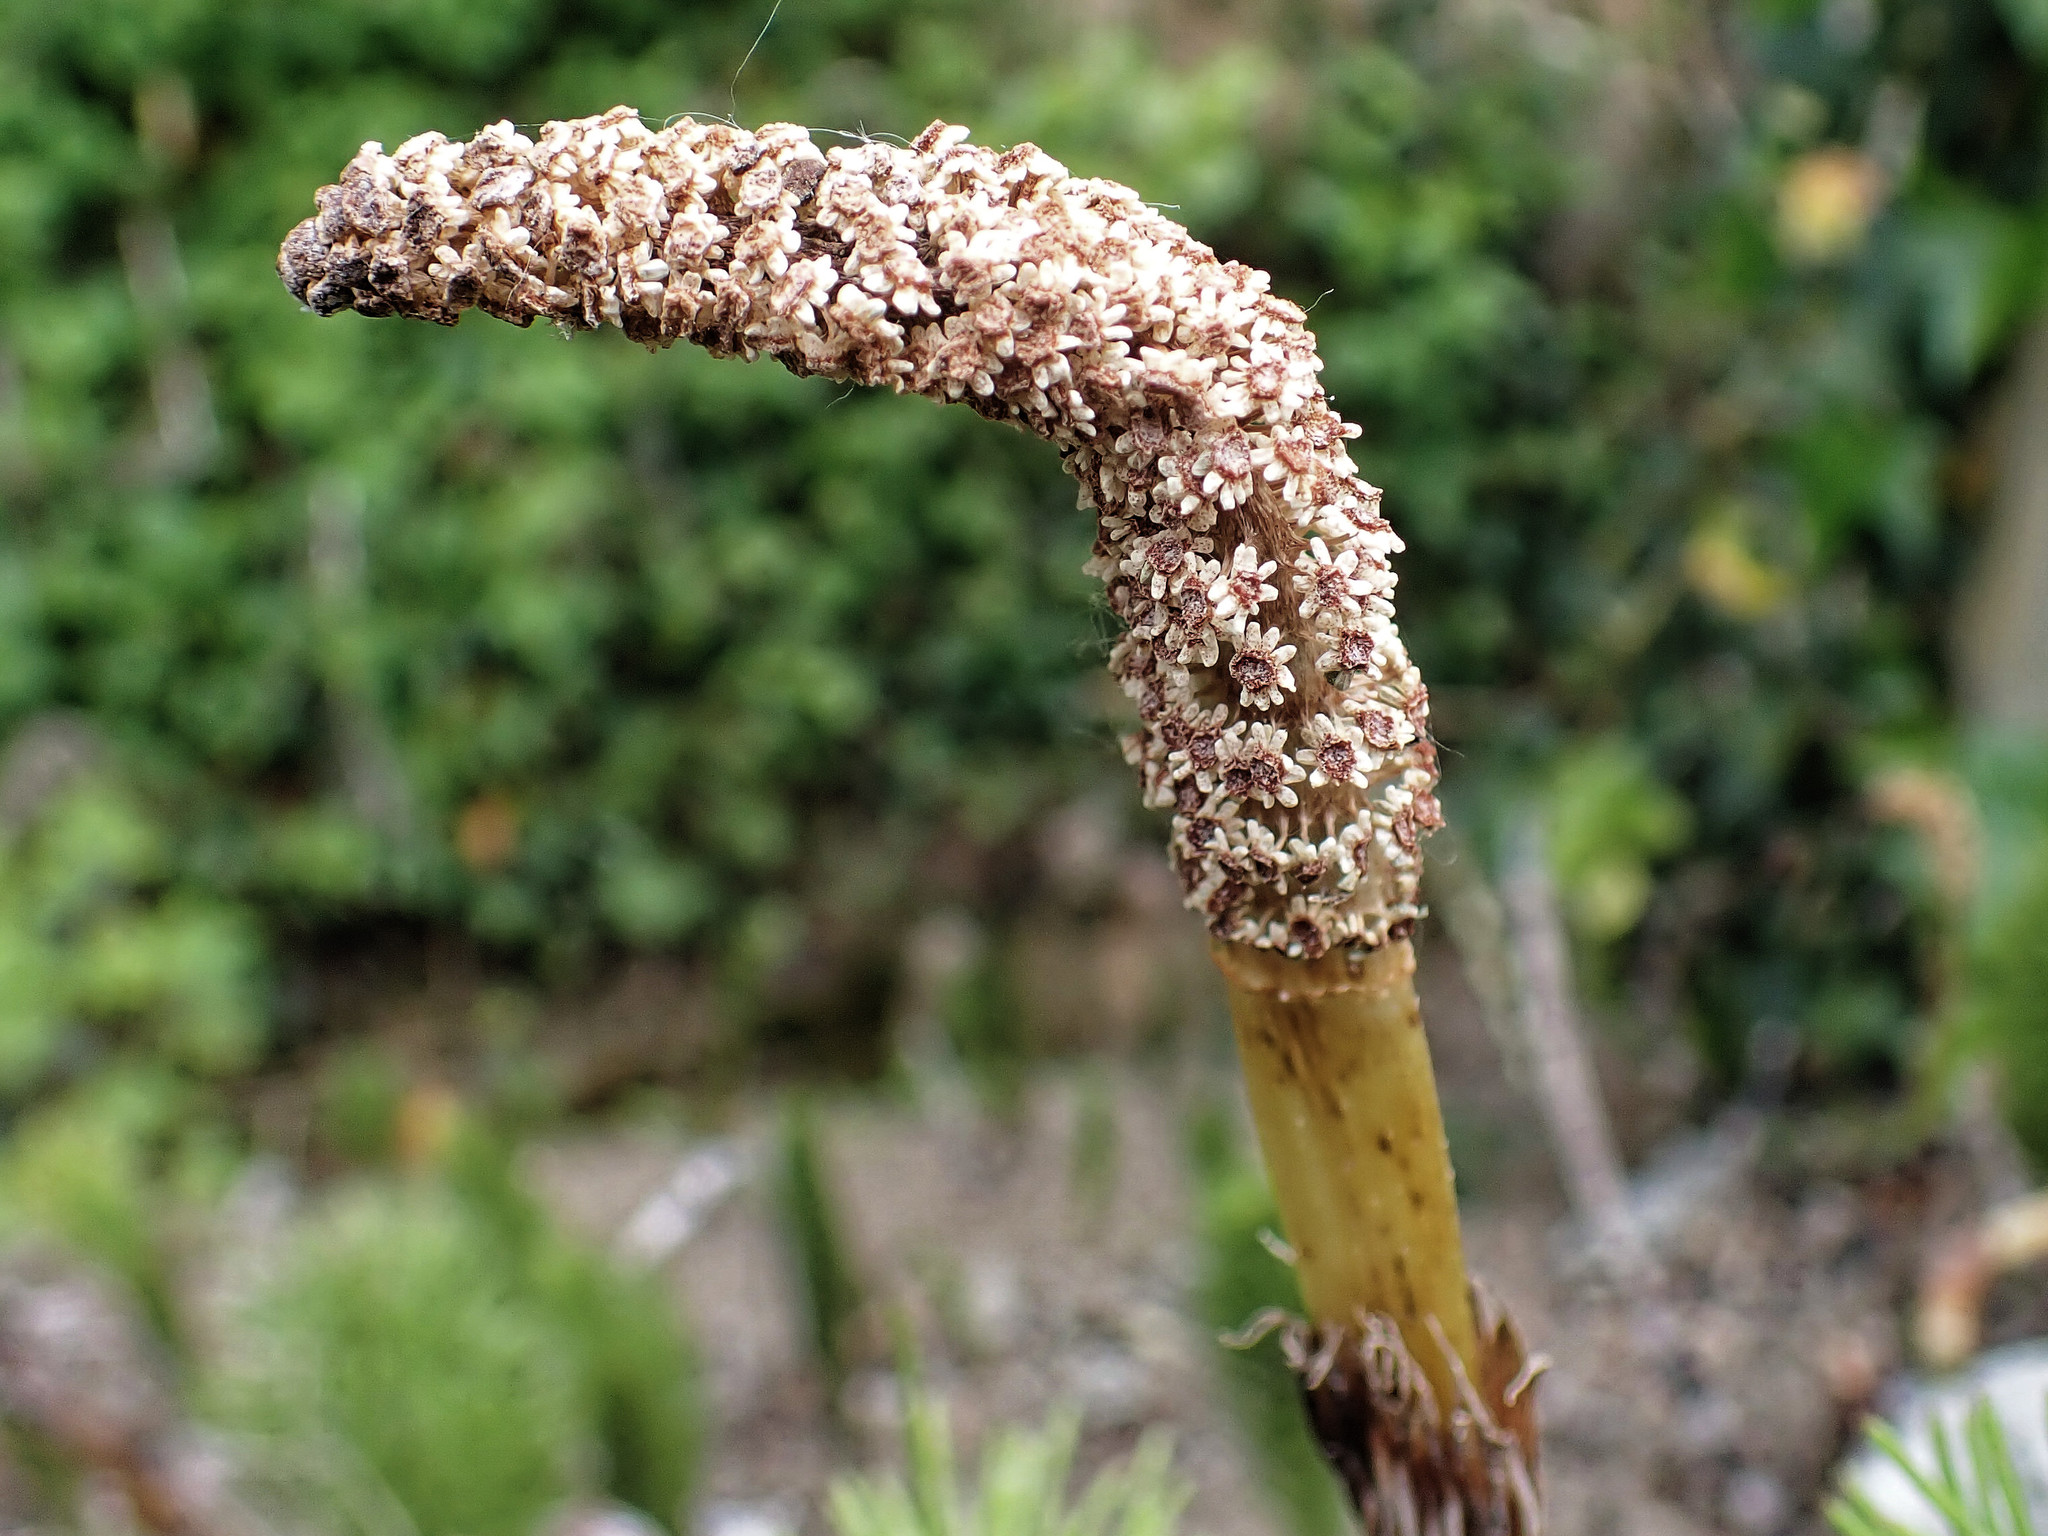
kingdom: Plantae
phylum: Tracheophyta
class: Polypodiopsida
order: Equisetales
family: Equisetaceae
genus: Equisetum
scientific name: Equisetum telmateia
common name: Great horsetail
